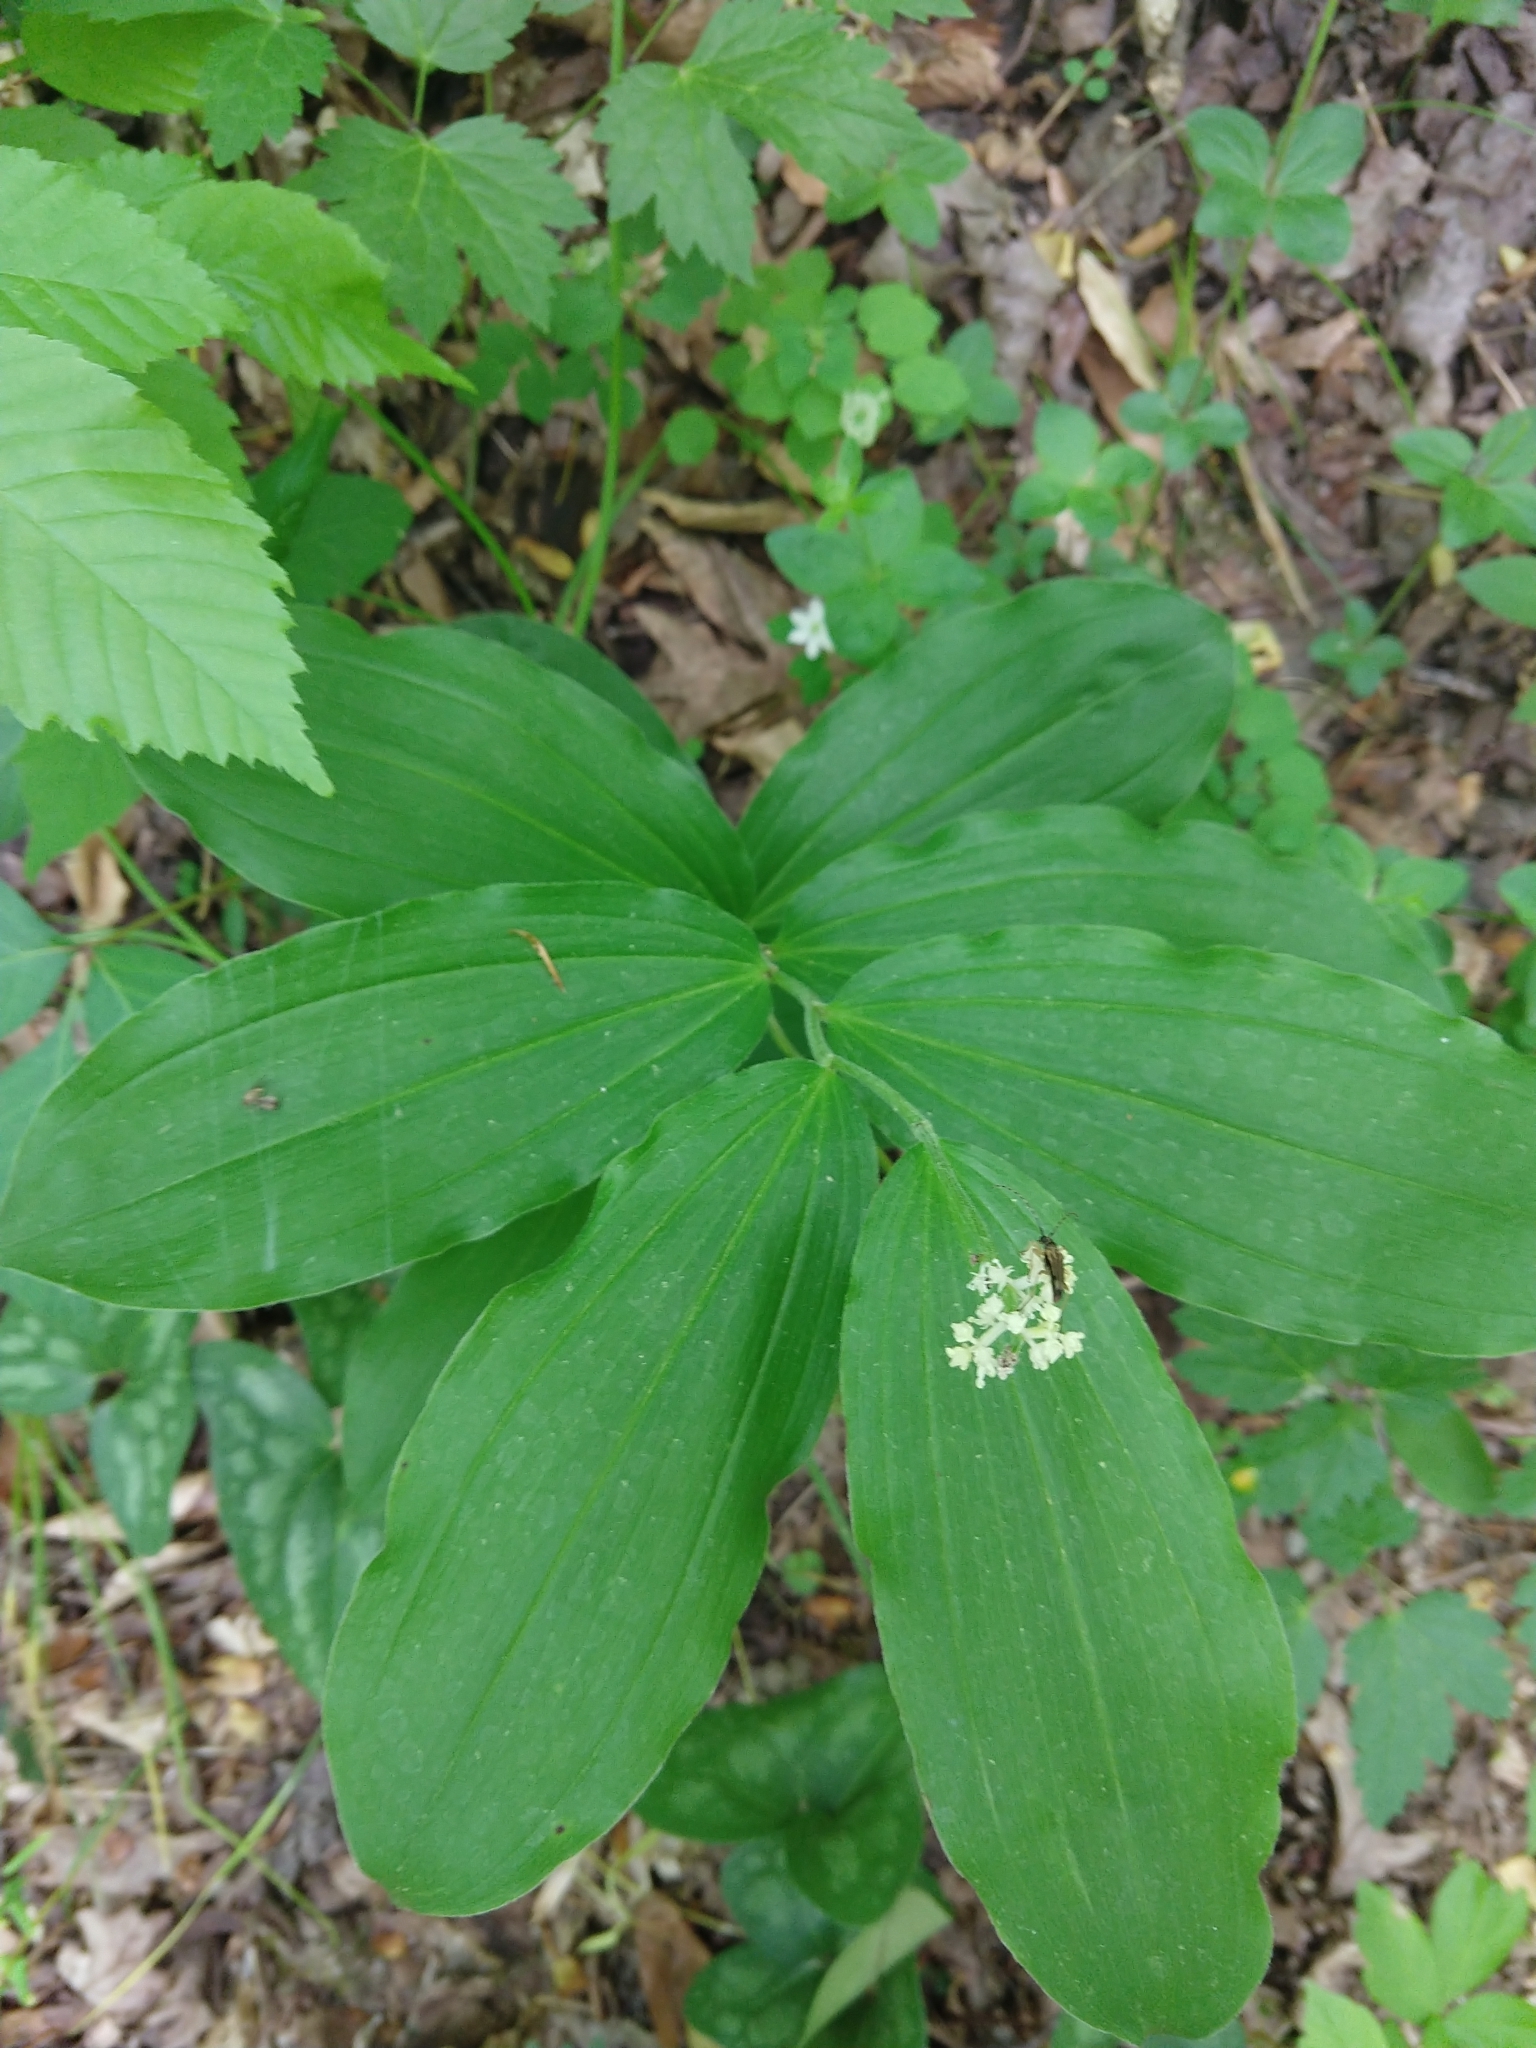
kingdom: Plantae
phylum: Tracheophyta
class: Liliopsida
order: Asparagales
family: Asparagaceae
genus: Maianthemum
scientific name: Maianthemum racemosum
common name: False spikenard
